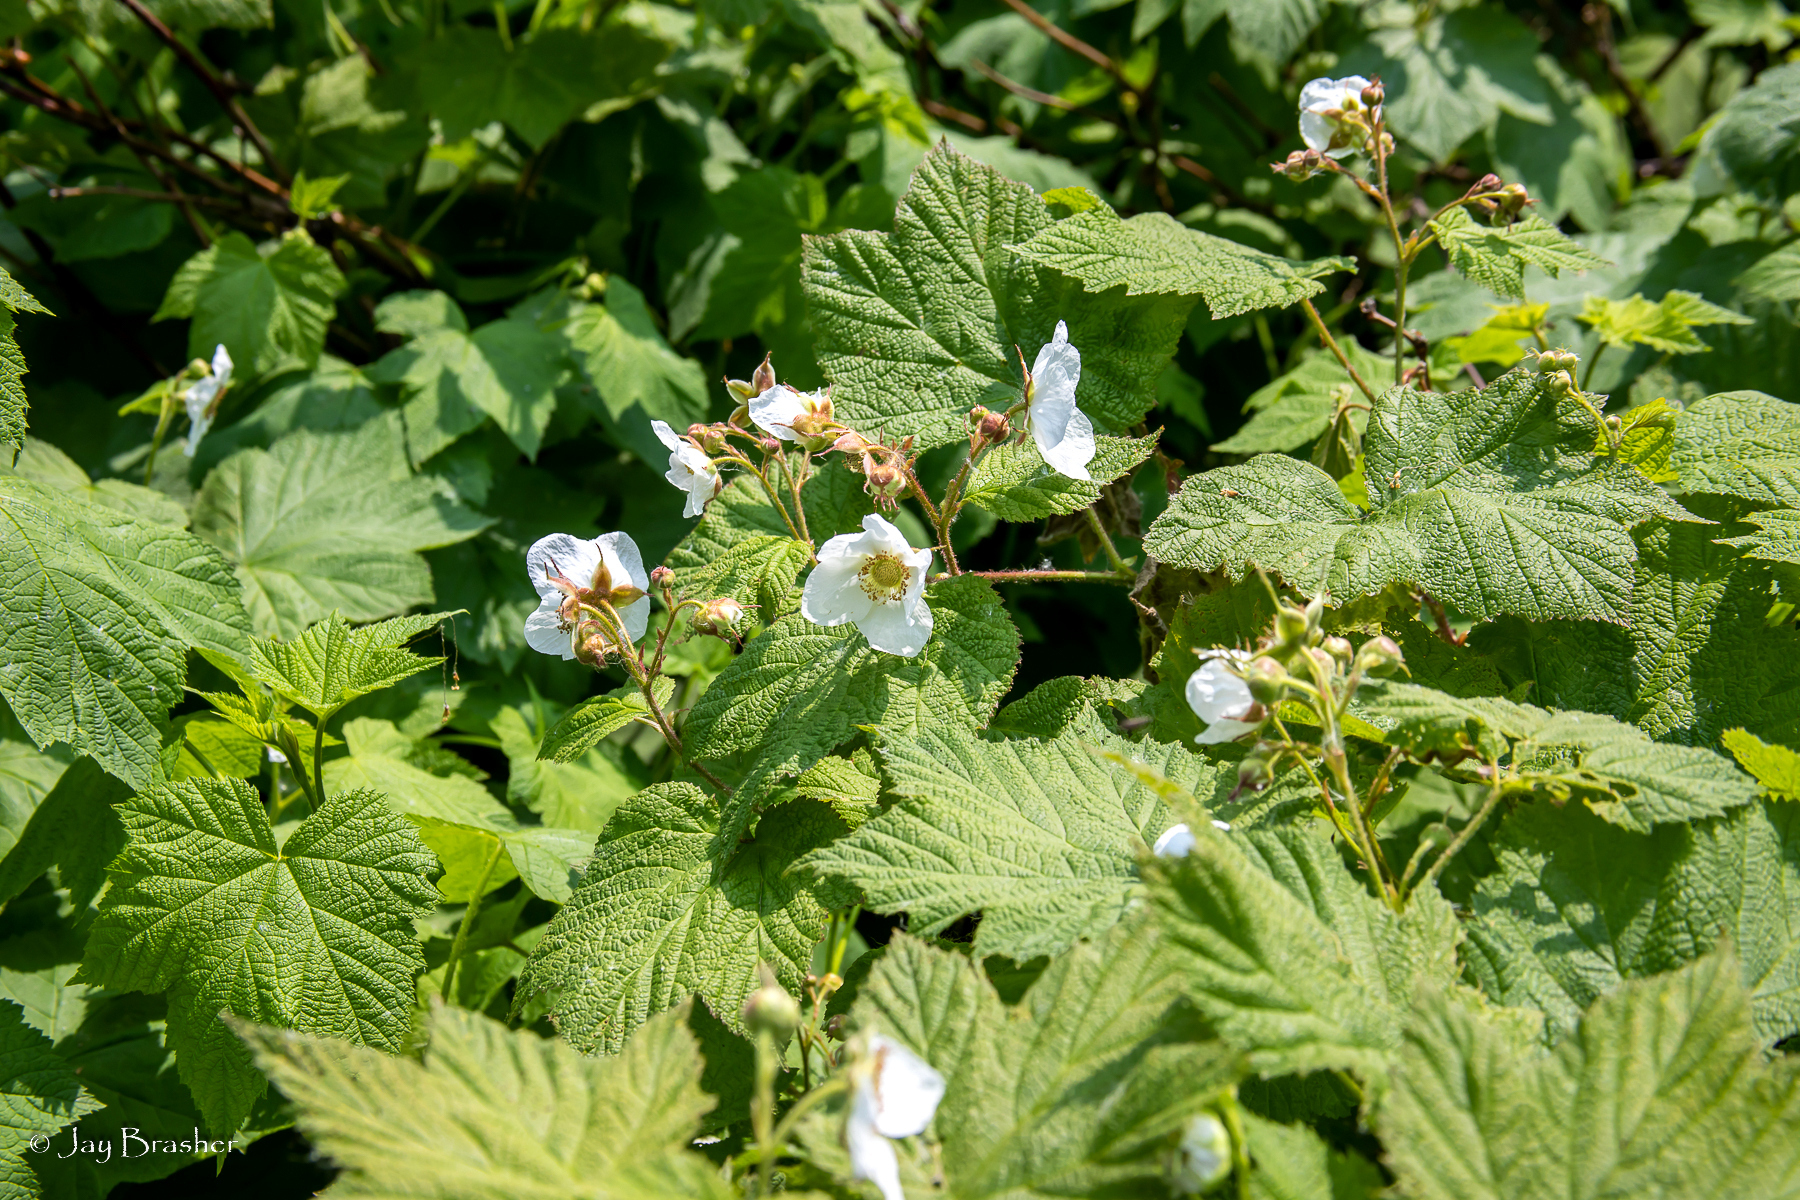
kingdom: Plantae
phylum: Tracheophyta
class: Magnoliopsida
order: Rosales
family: Rosaceae
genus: Rubus
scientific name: Rubus parviflorus
